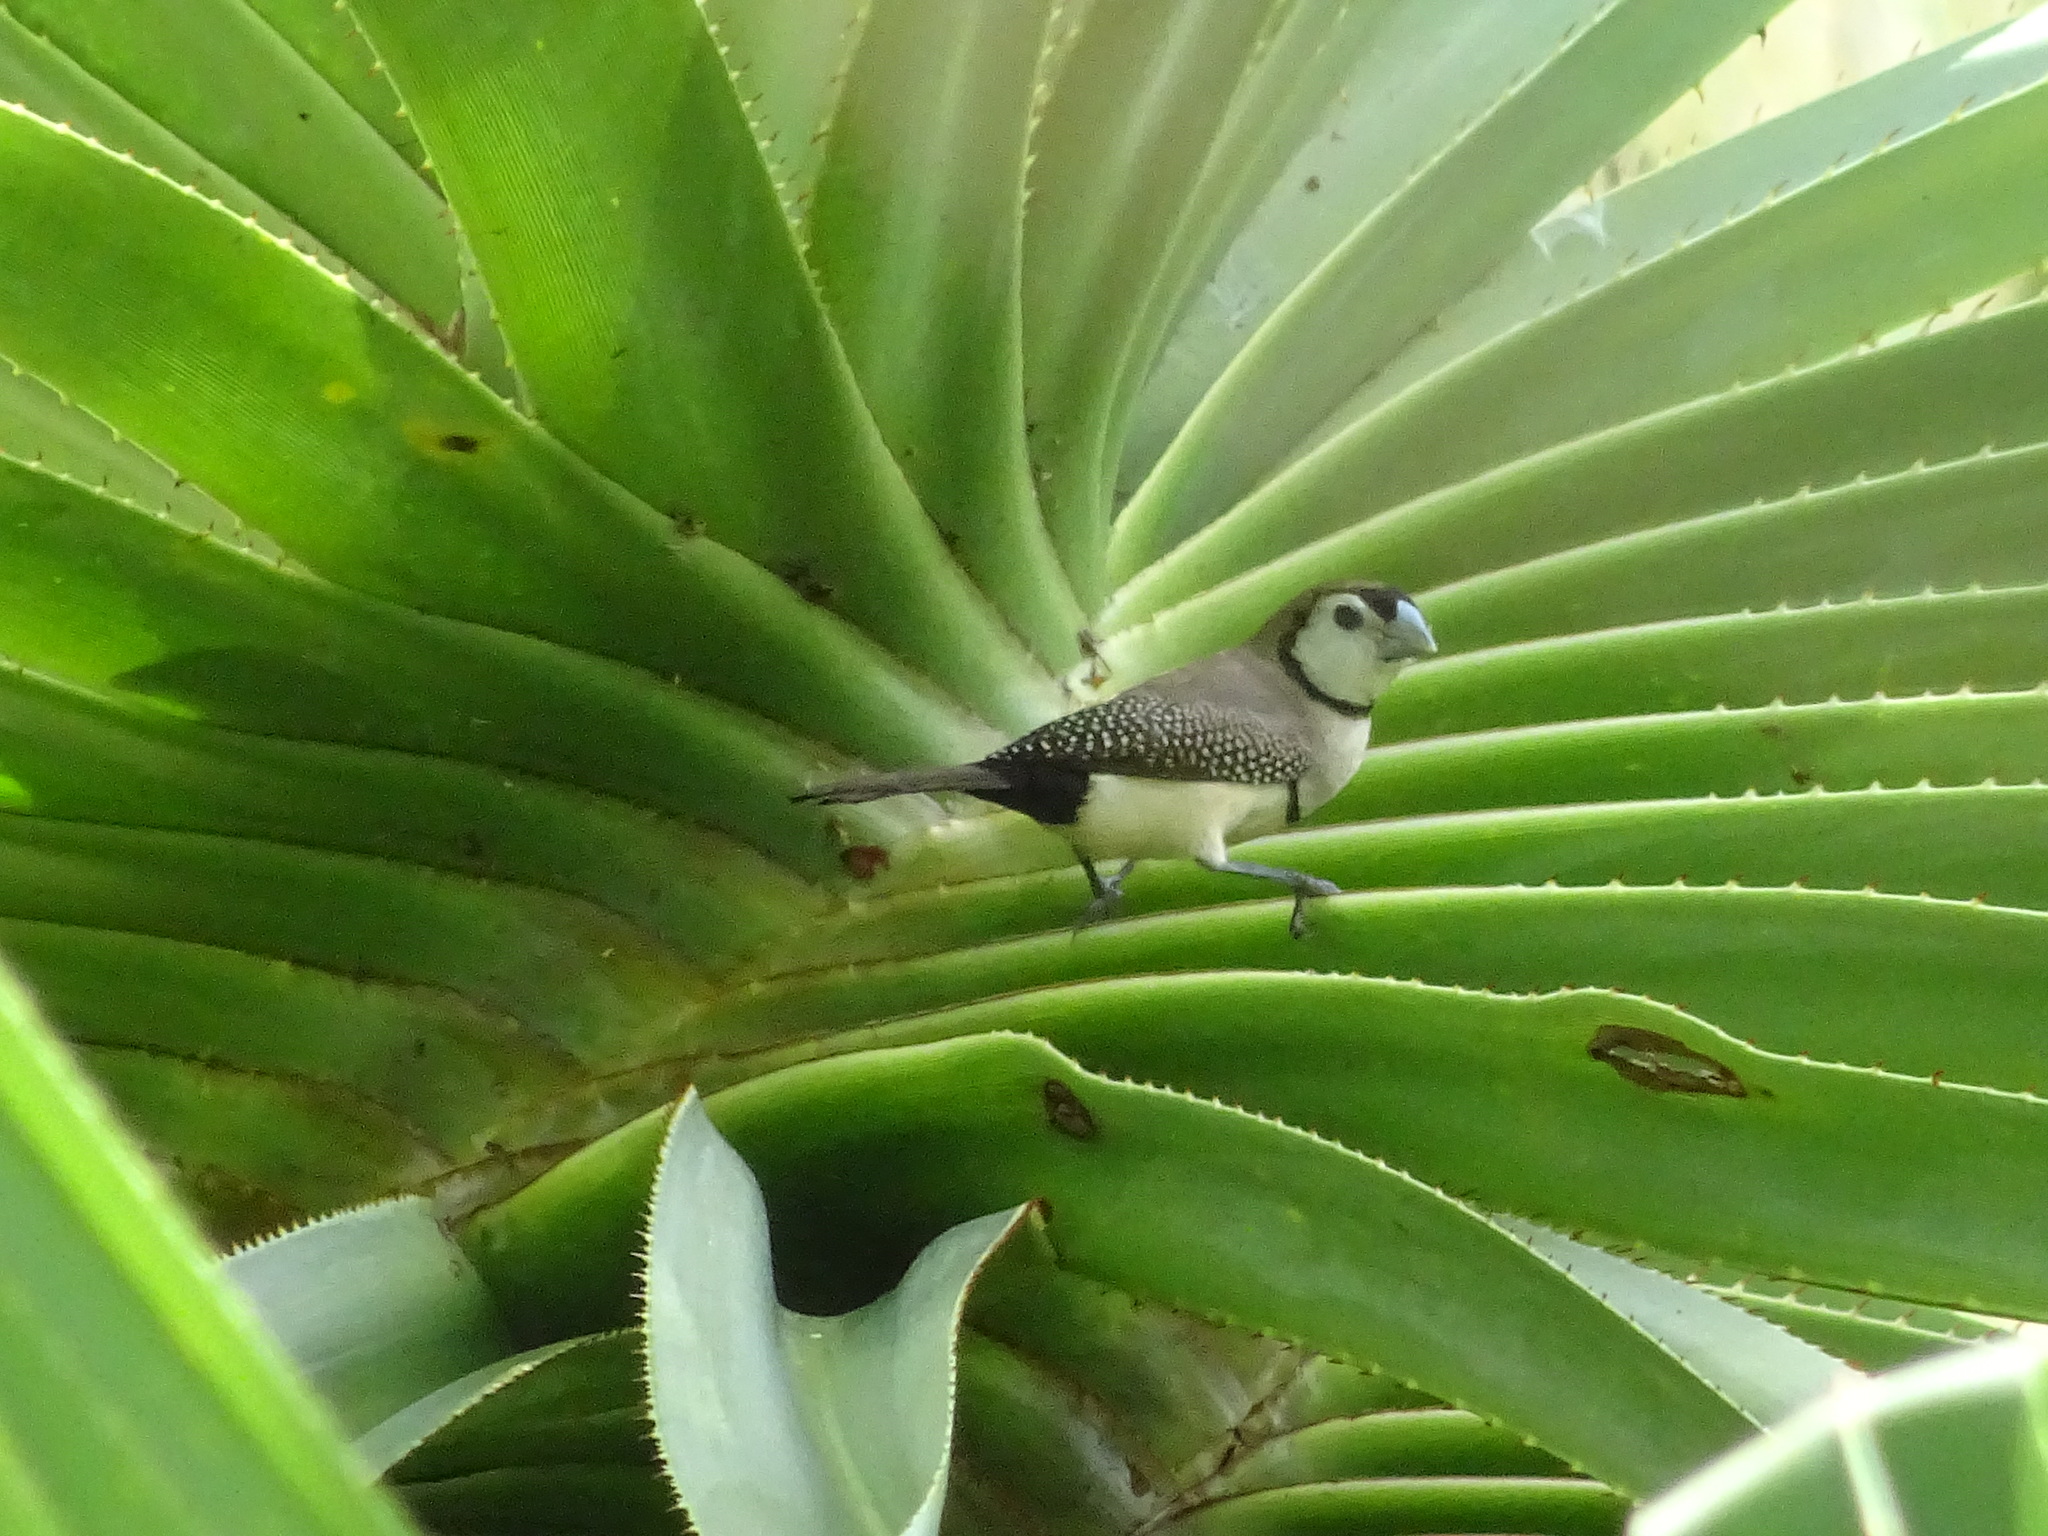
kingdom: Animalia
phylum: Chordata
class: Aves
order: Passeriformes
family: Estrildidae
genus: Taeniopygia
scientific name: Taeniopygia bichenovii
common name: Double-barred finch
